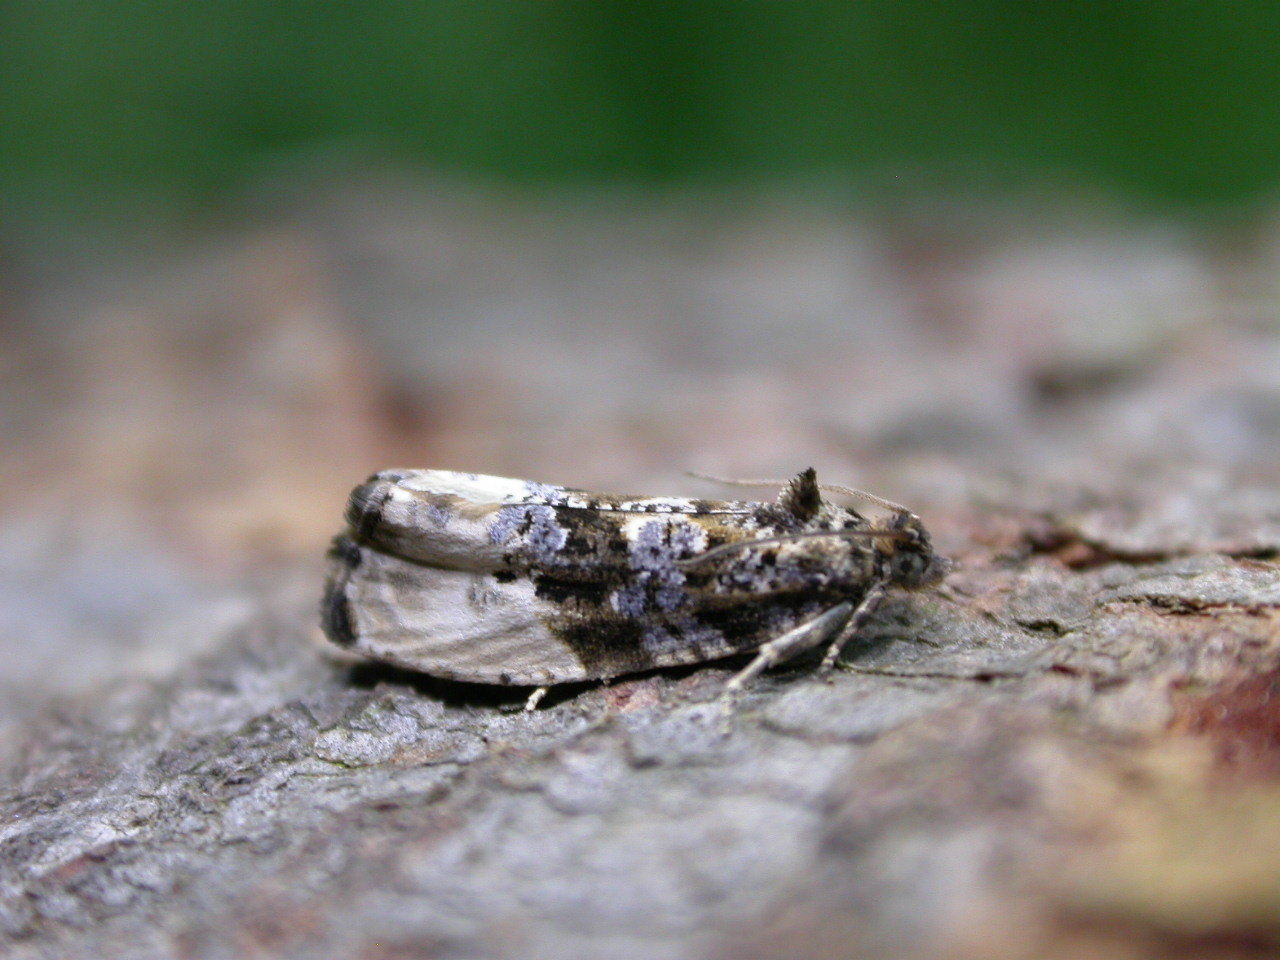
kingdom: Animalia
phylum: Arthropoda
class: Insecta
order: Lepidoptera
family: Tortricidae
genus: Hedya
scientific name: Hedya nubiferana
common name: Marbled orchard tortrix
